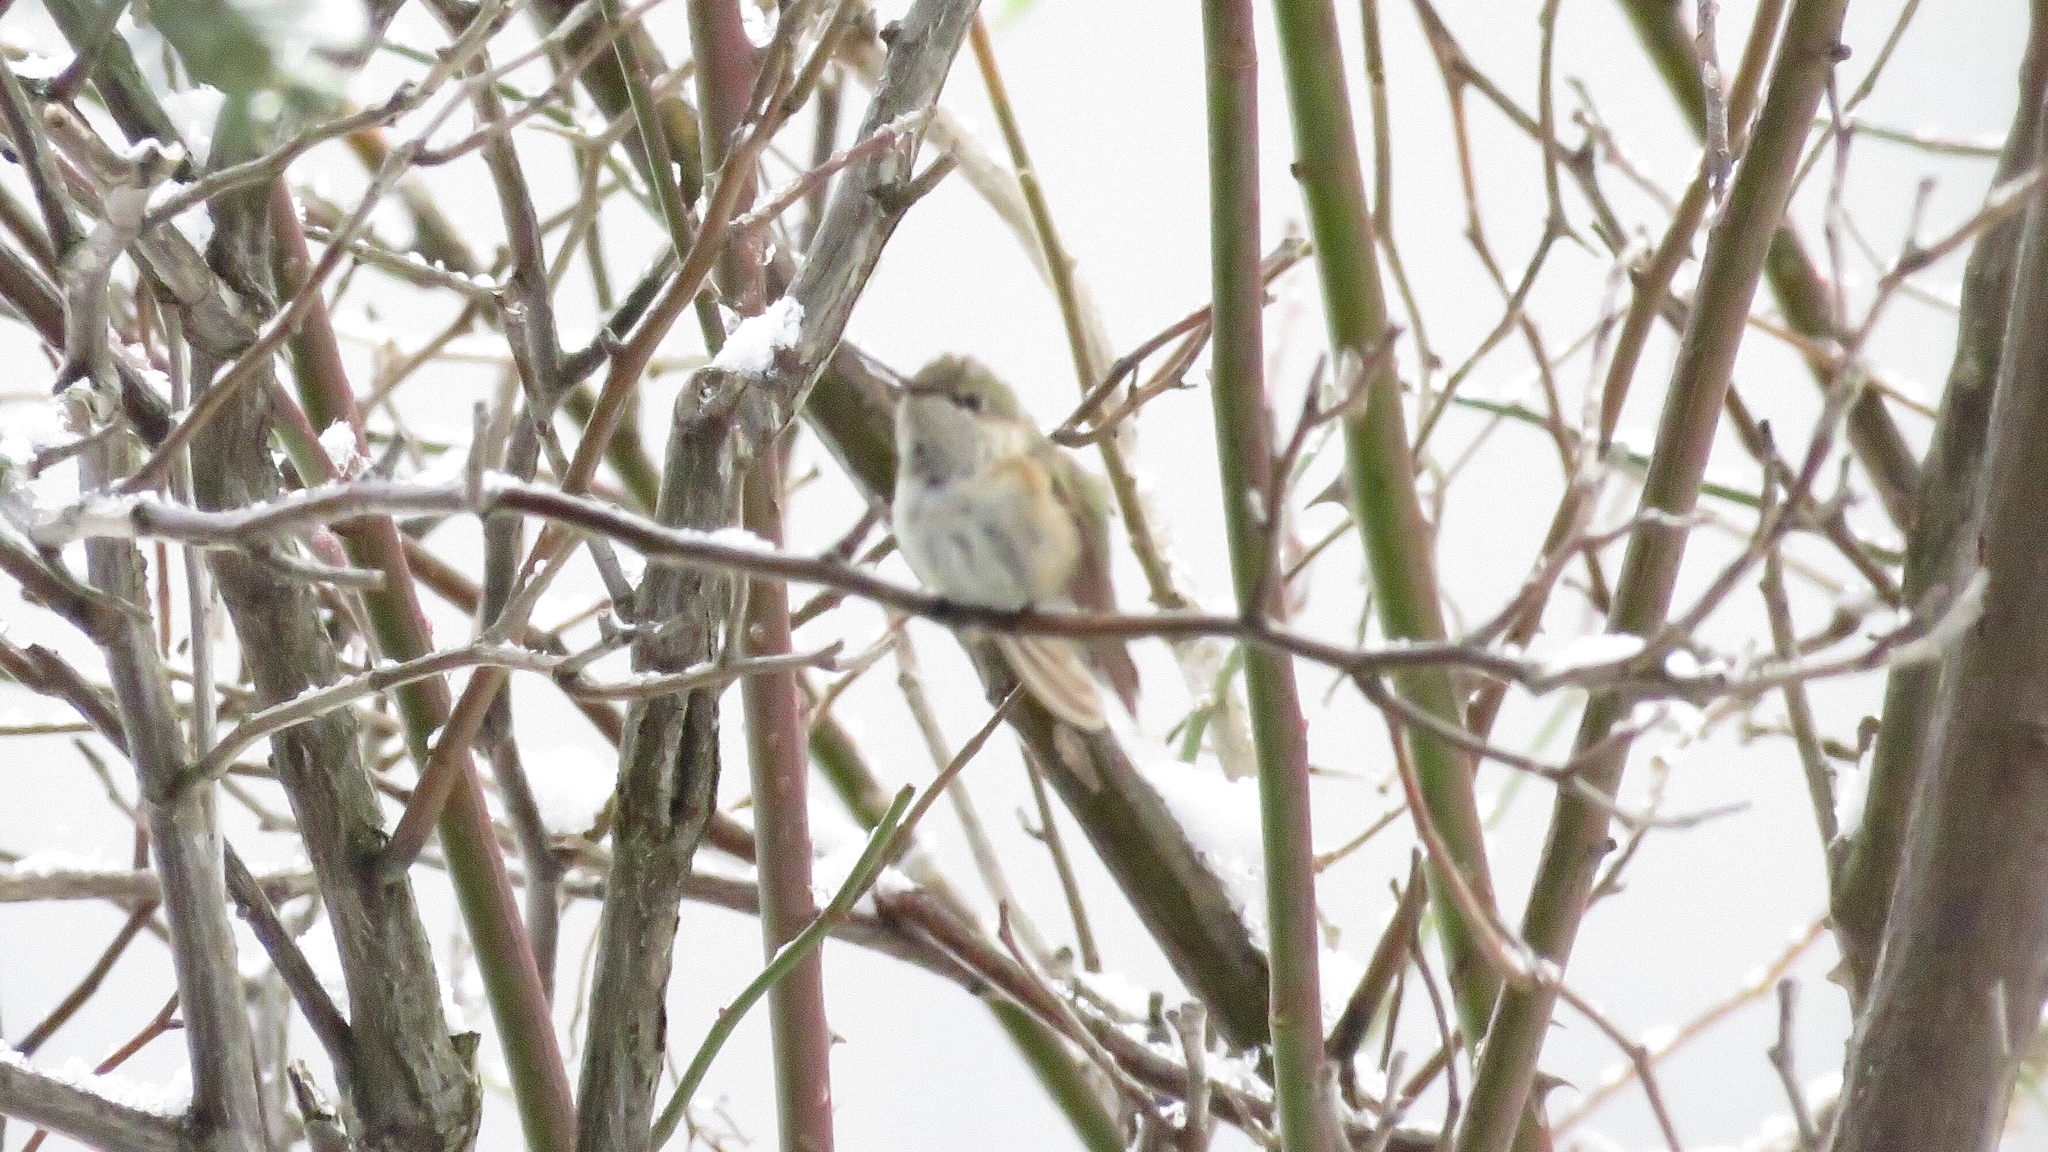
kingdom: Animalia
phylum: Chordata
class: Aves
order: Apodiformes
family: Trochilidae
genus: Selasphorus
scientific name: Selasphorus calliope
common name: Calliope hummingbird
